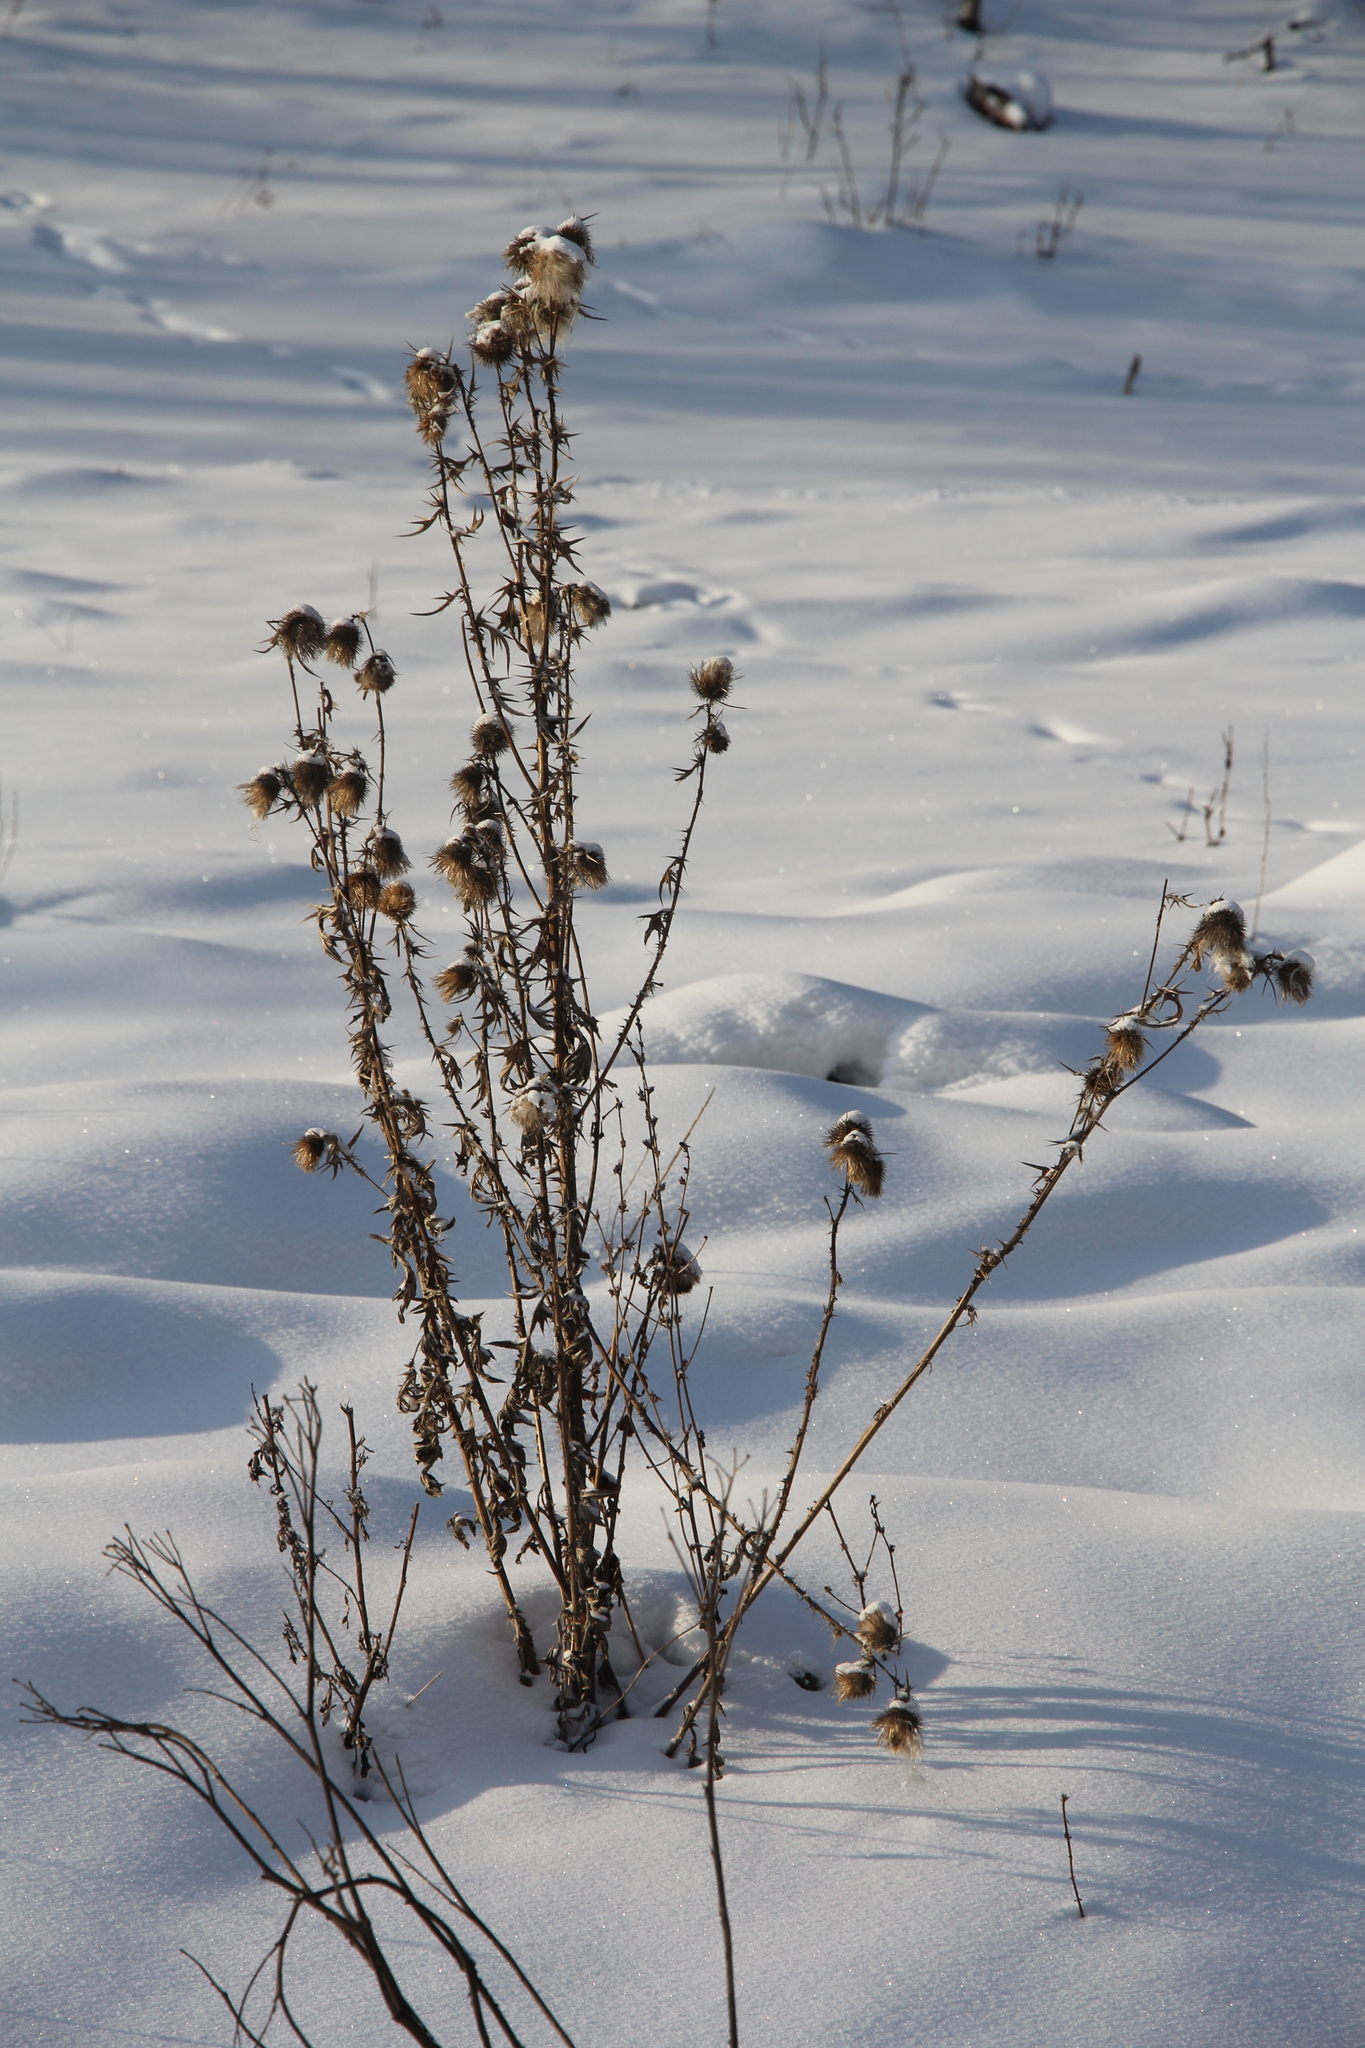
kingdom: Plantae
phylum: Tracheophyta
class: Magnoliopsida
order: Asterales
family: Asteraceae
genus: Cirsium
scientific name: Cirsium vulgare
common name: Bull thistle
